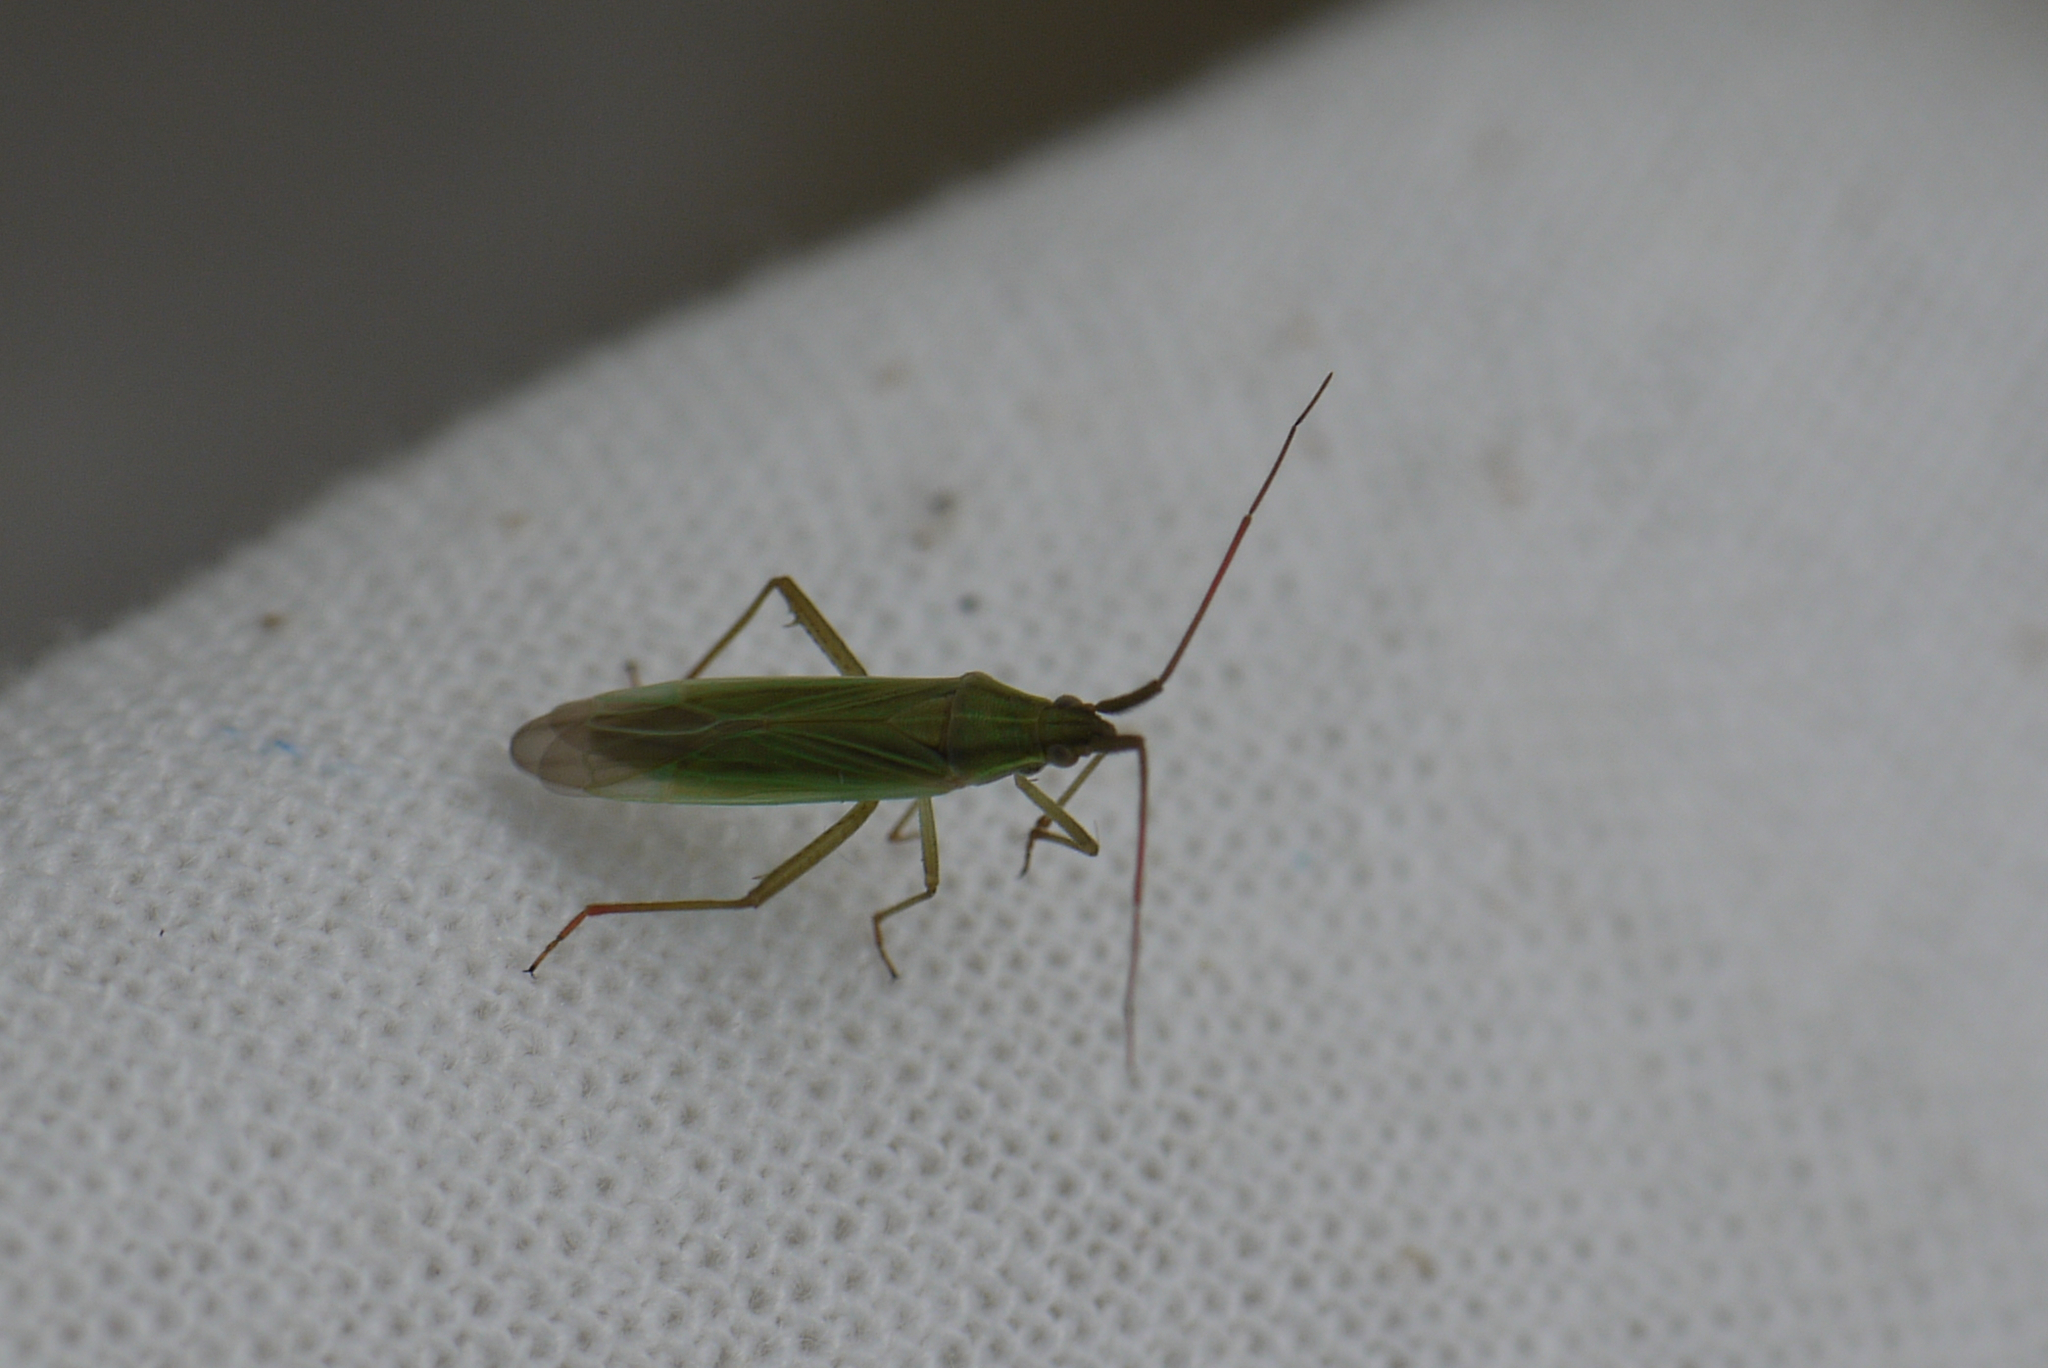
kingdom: Animalia
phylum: Arthropoda
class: Insecta
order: Hemiptera
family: Miridae
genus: Stenodema
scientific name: Stenodema calcarata
